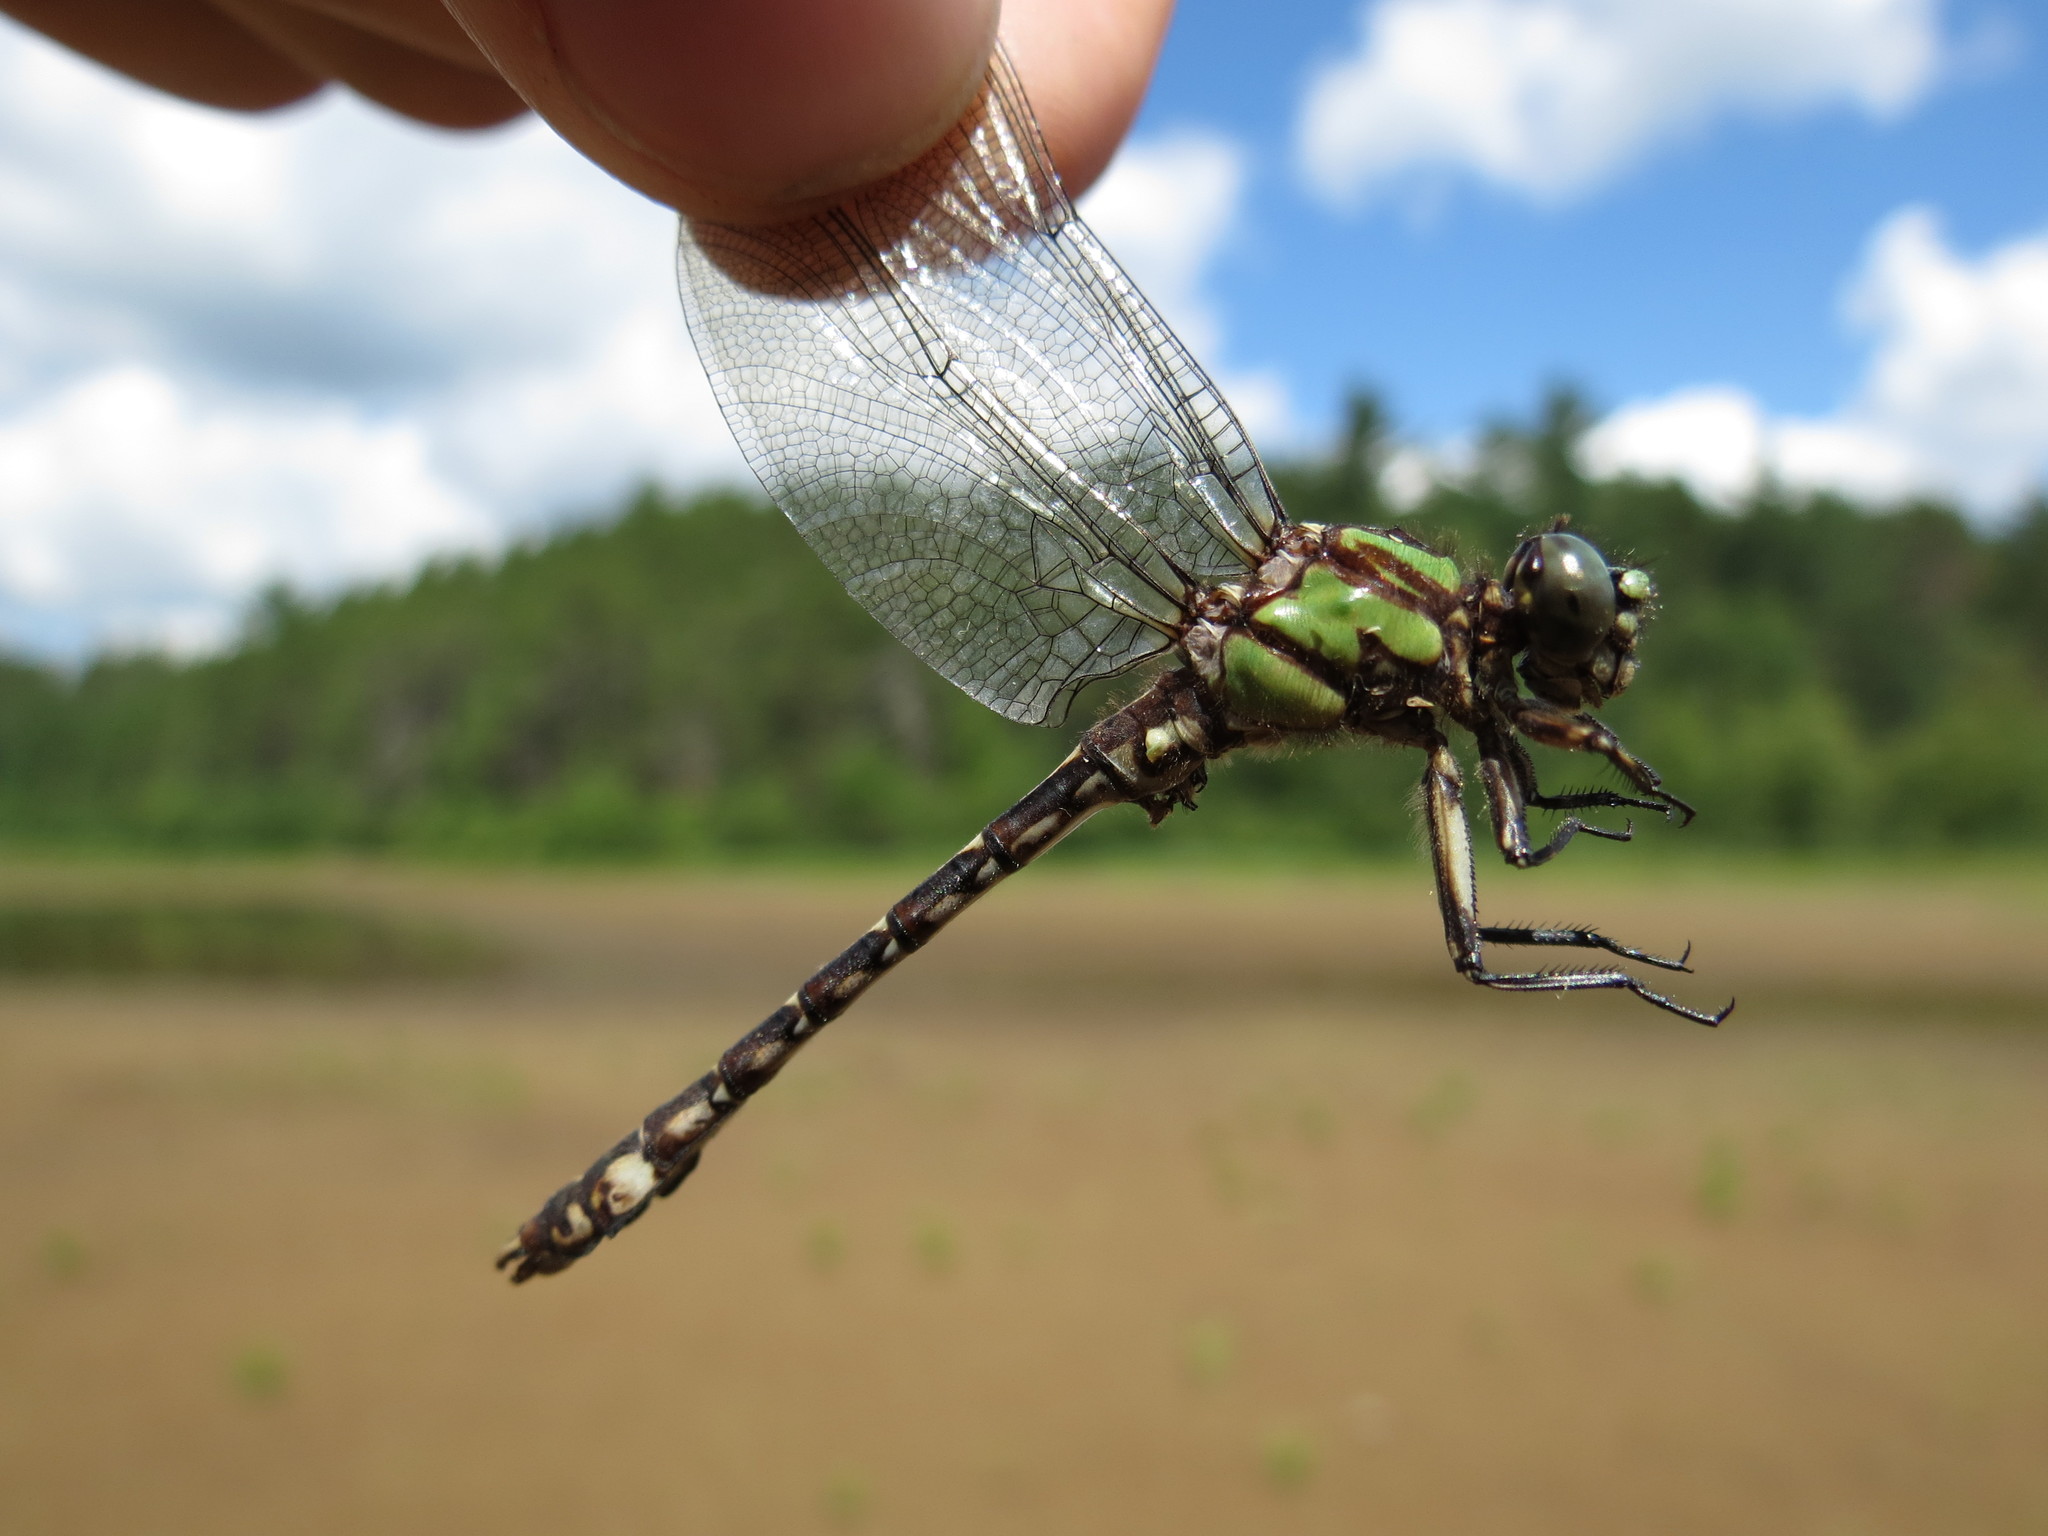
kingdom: Animalia
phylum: Arthropoda
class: Insecta
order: Odonata
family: Gomphidae
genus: Ophiogomphus
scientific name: Ophiogomphus colubrinus
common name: Boreal snaketail
